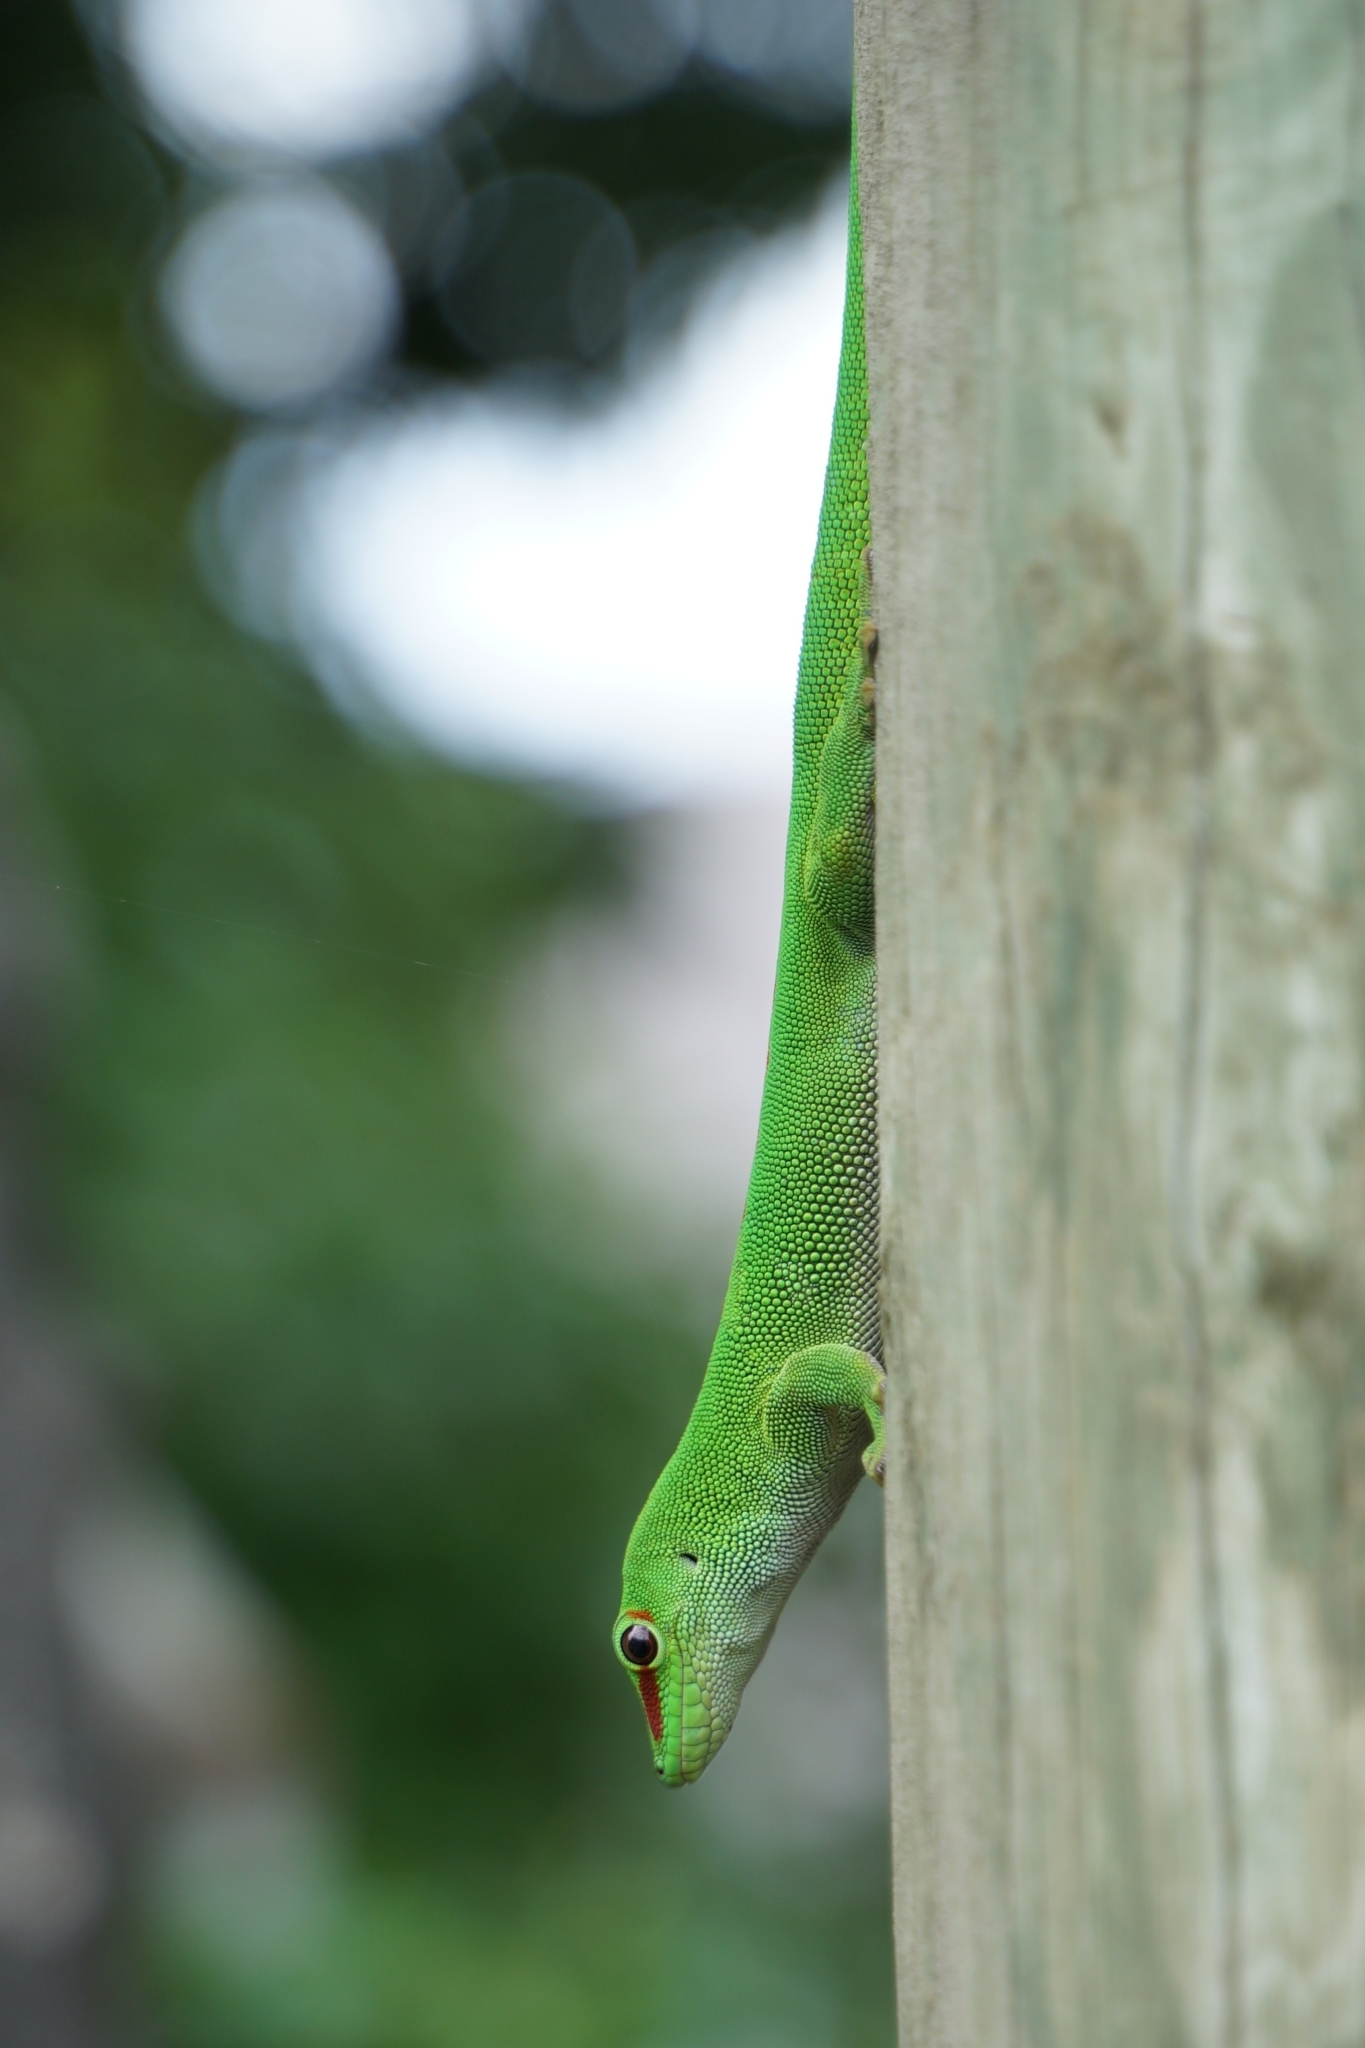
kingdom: Animalia
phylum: Chordata
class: Squamata
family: Gekkonidae
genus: Phelsuma
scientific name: Phelsuma grandis
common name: Madagascar giant day gecko
